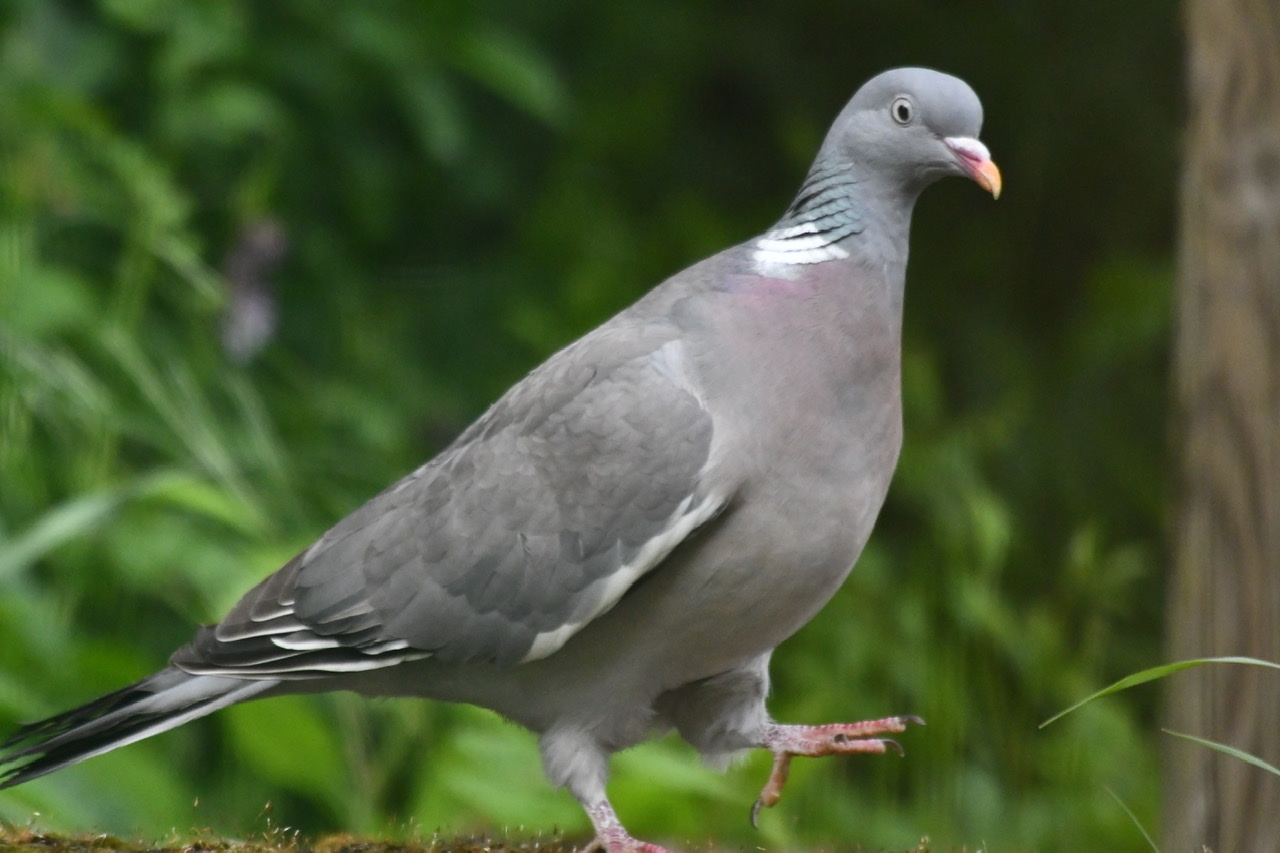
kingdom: Animalia
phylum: Chordata
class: Aves
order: Columbiformes
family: Columbidae
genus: Columba
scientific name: Columba palumbus
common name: Common wood pigeon
